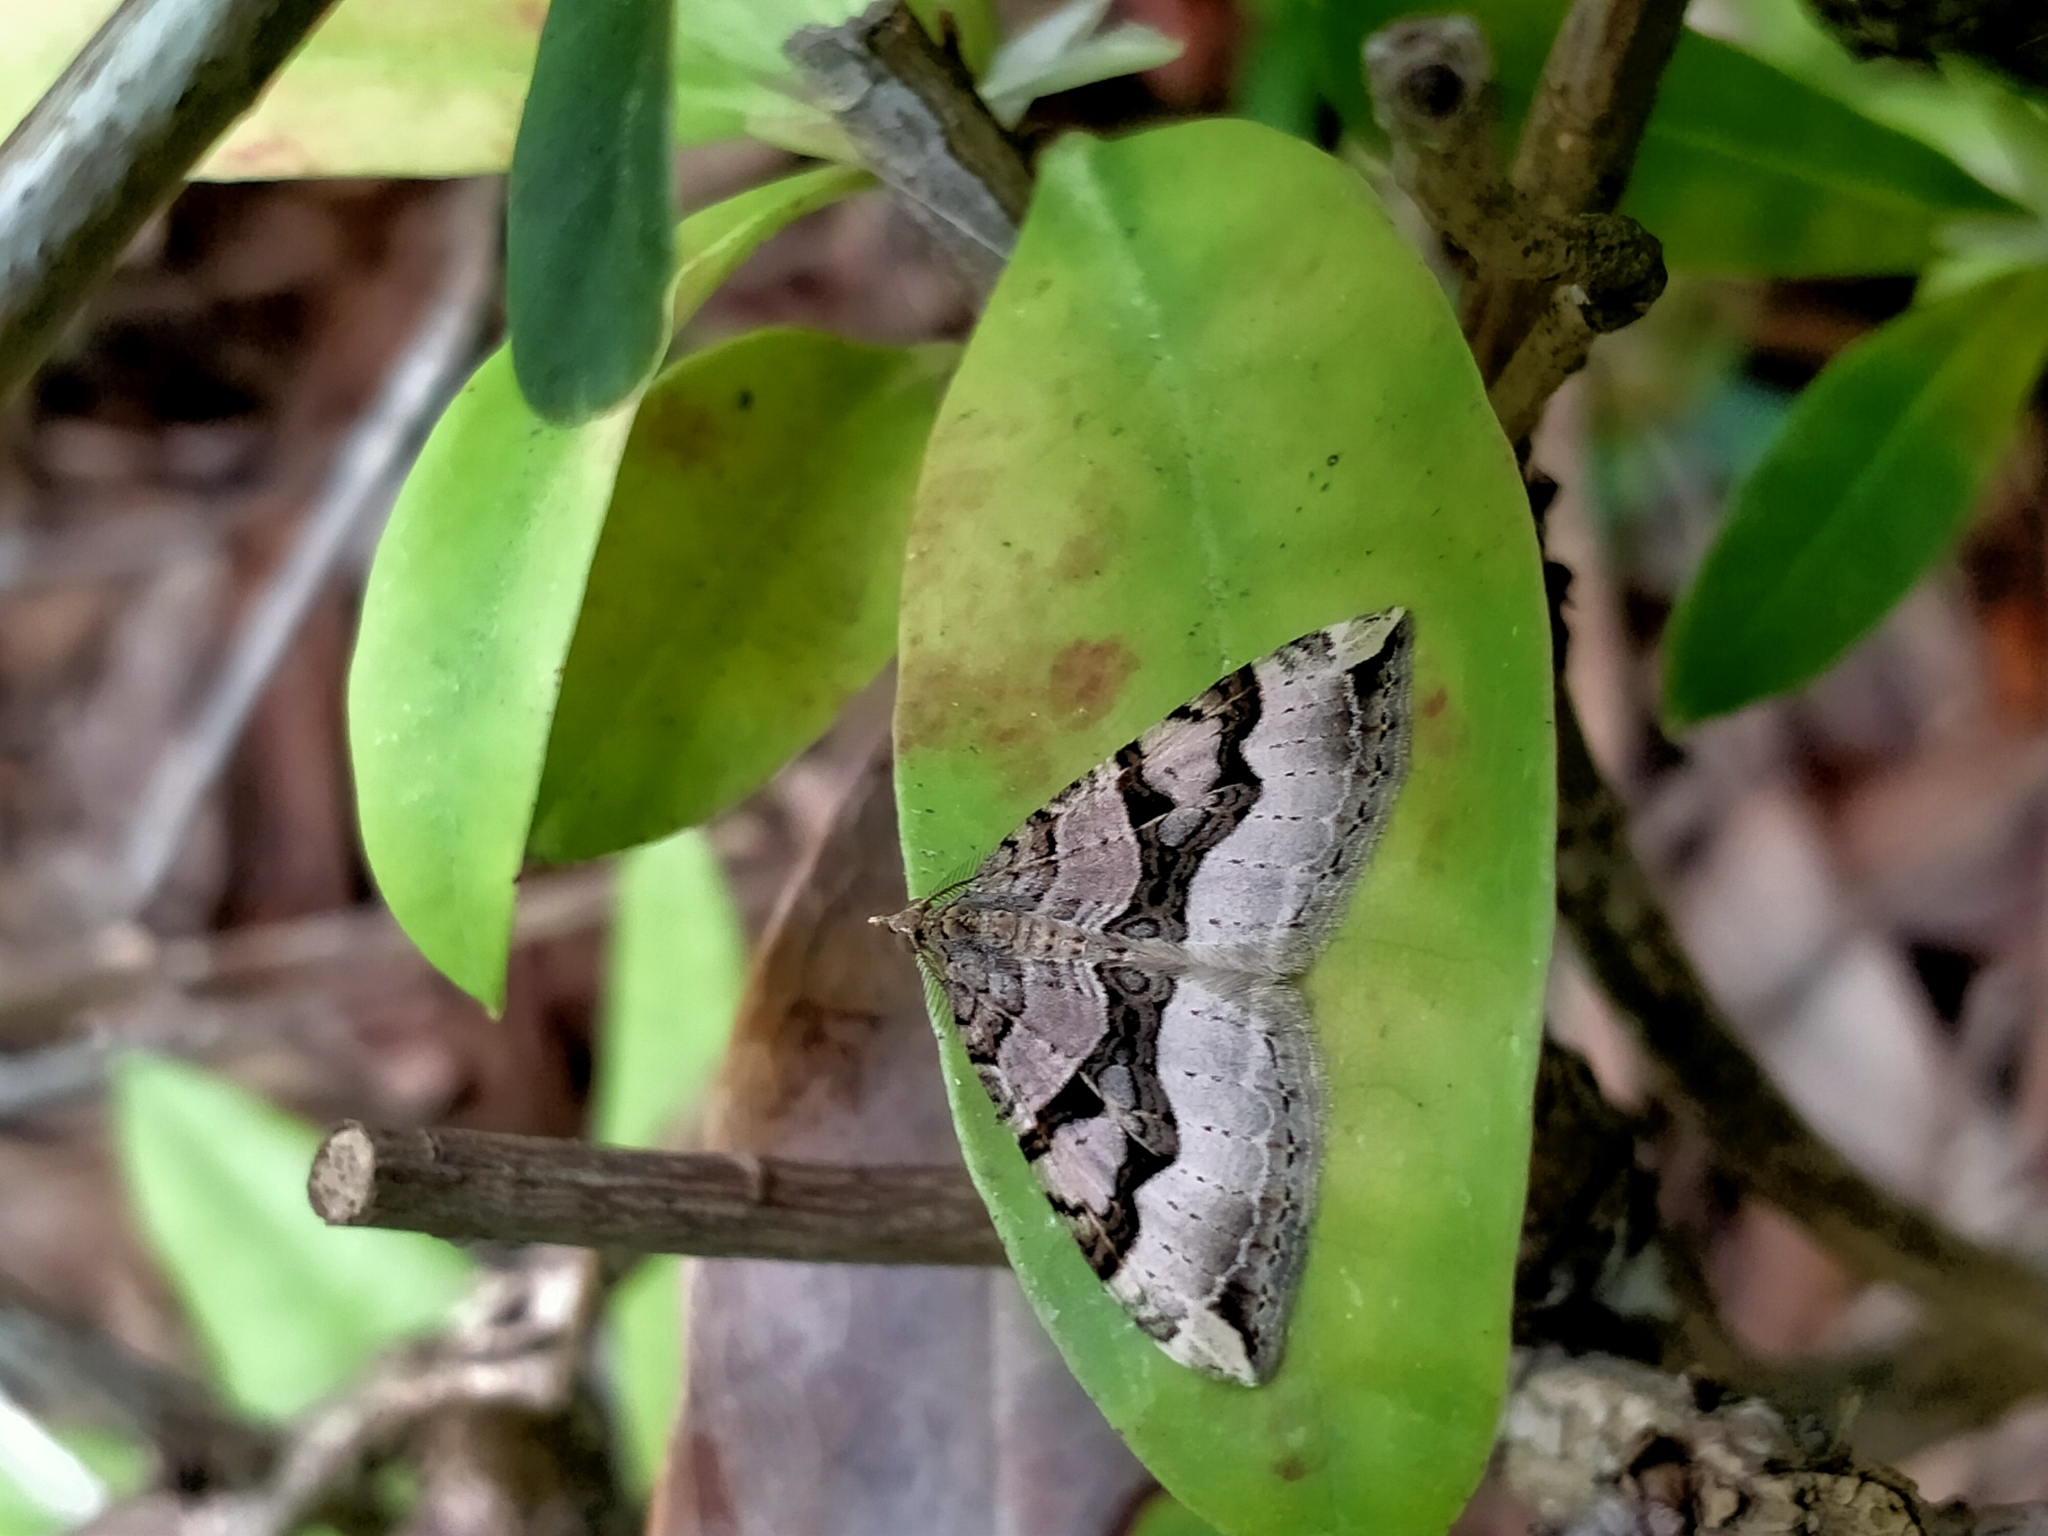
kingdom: Animalia
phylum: Arthropoda
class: Insecta
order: Lepidoptera
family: Geometridae
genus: Xanthorhoe
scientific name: Xanthorhoe semifissata
